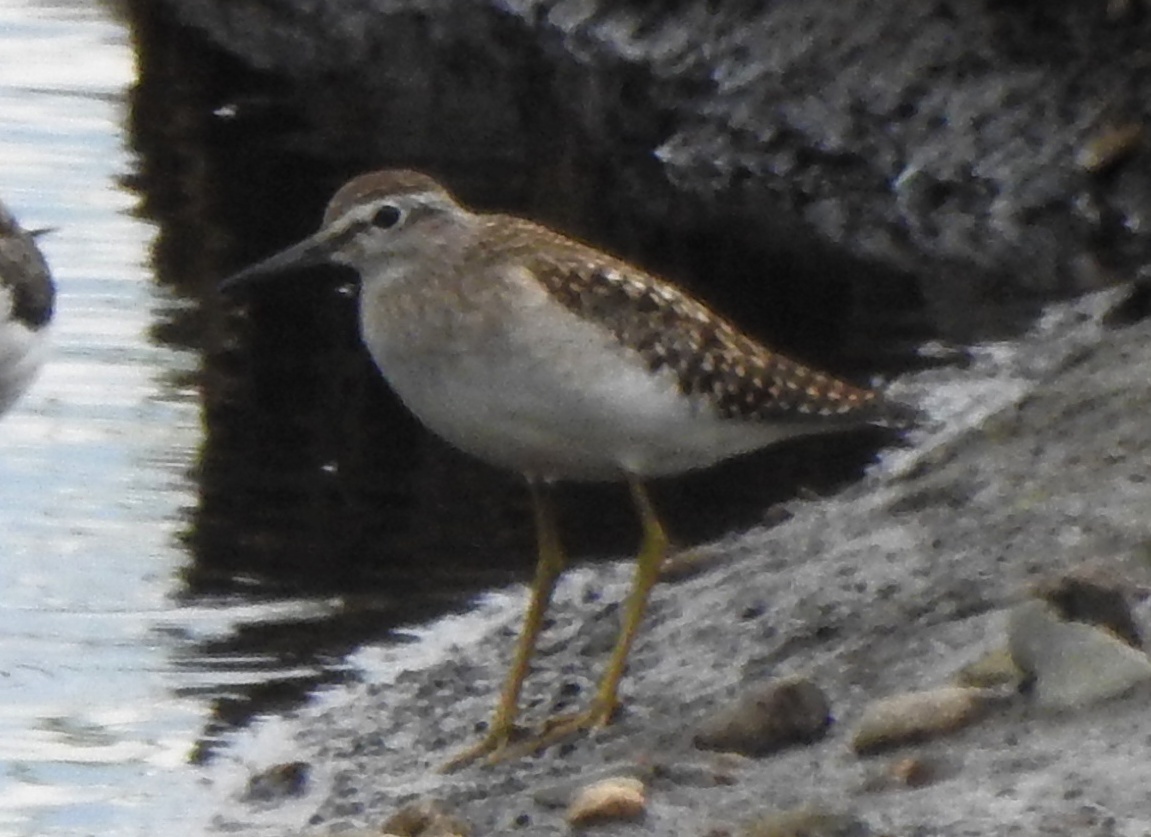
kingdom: Animalia
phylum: Chordata
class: Aves
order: Charadriiformes
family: Scolopacidae
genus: Tringa
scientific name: Tringa glareola
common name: Wood sandpiper
